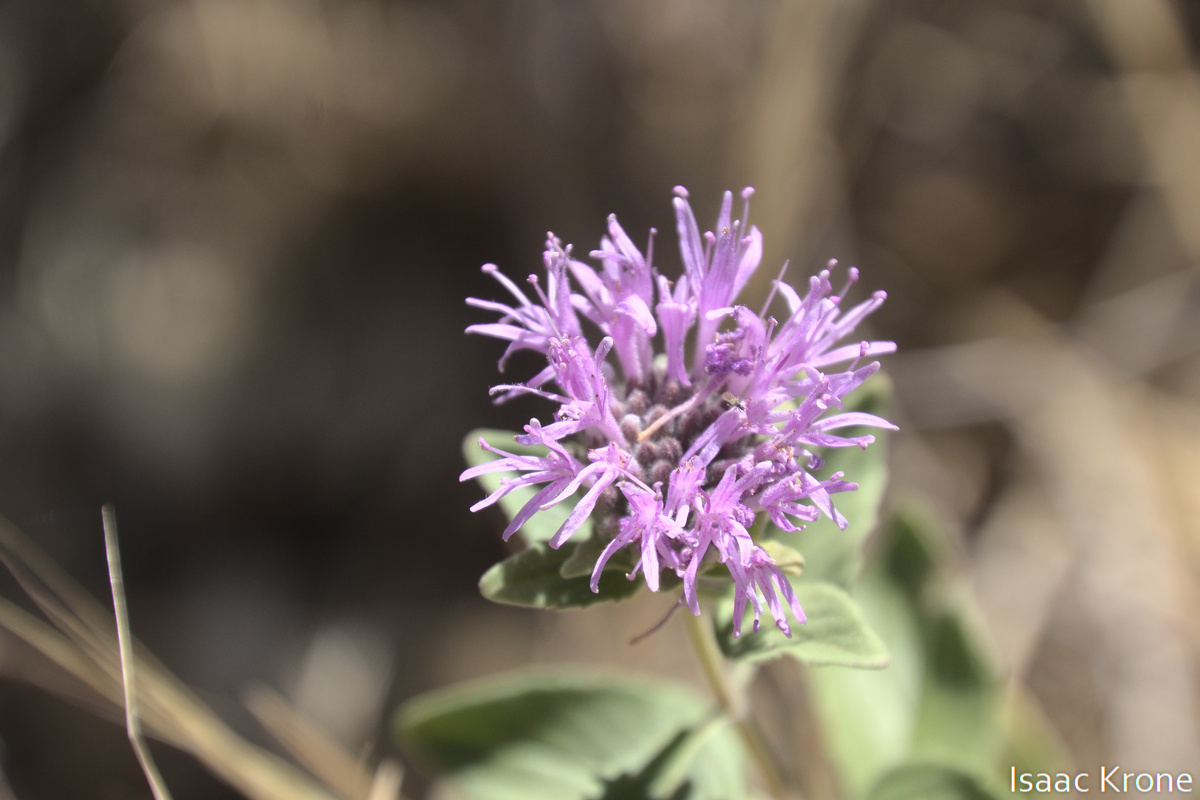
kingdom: Plantae
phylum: Tracheophyta
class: Magnoliopsida
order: Lamiales
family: Lamiaceae
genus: Monardella
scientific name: Monardella odoratissima
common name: Pacific monardella
